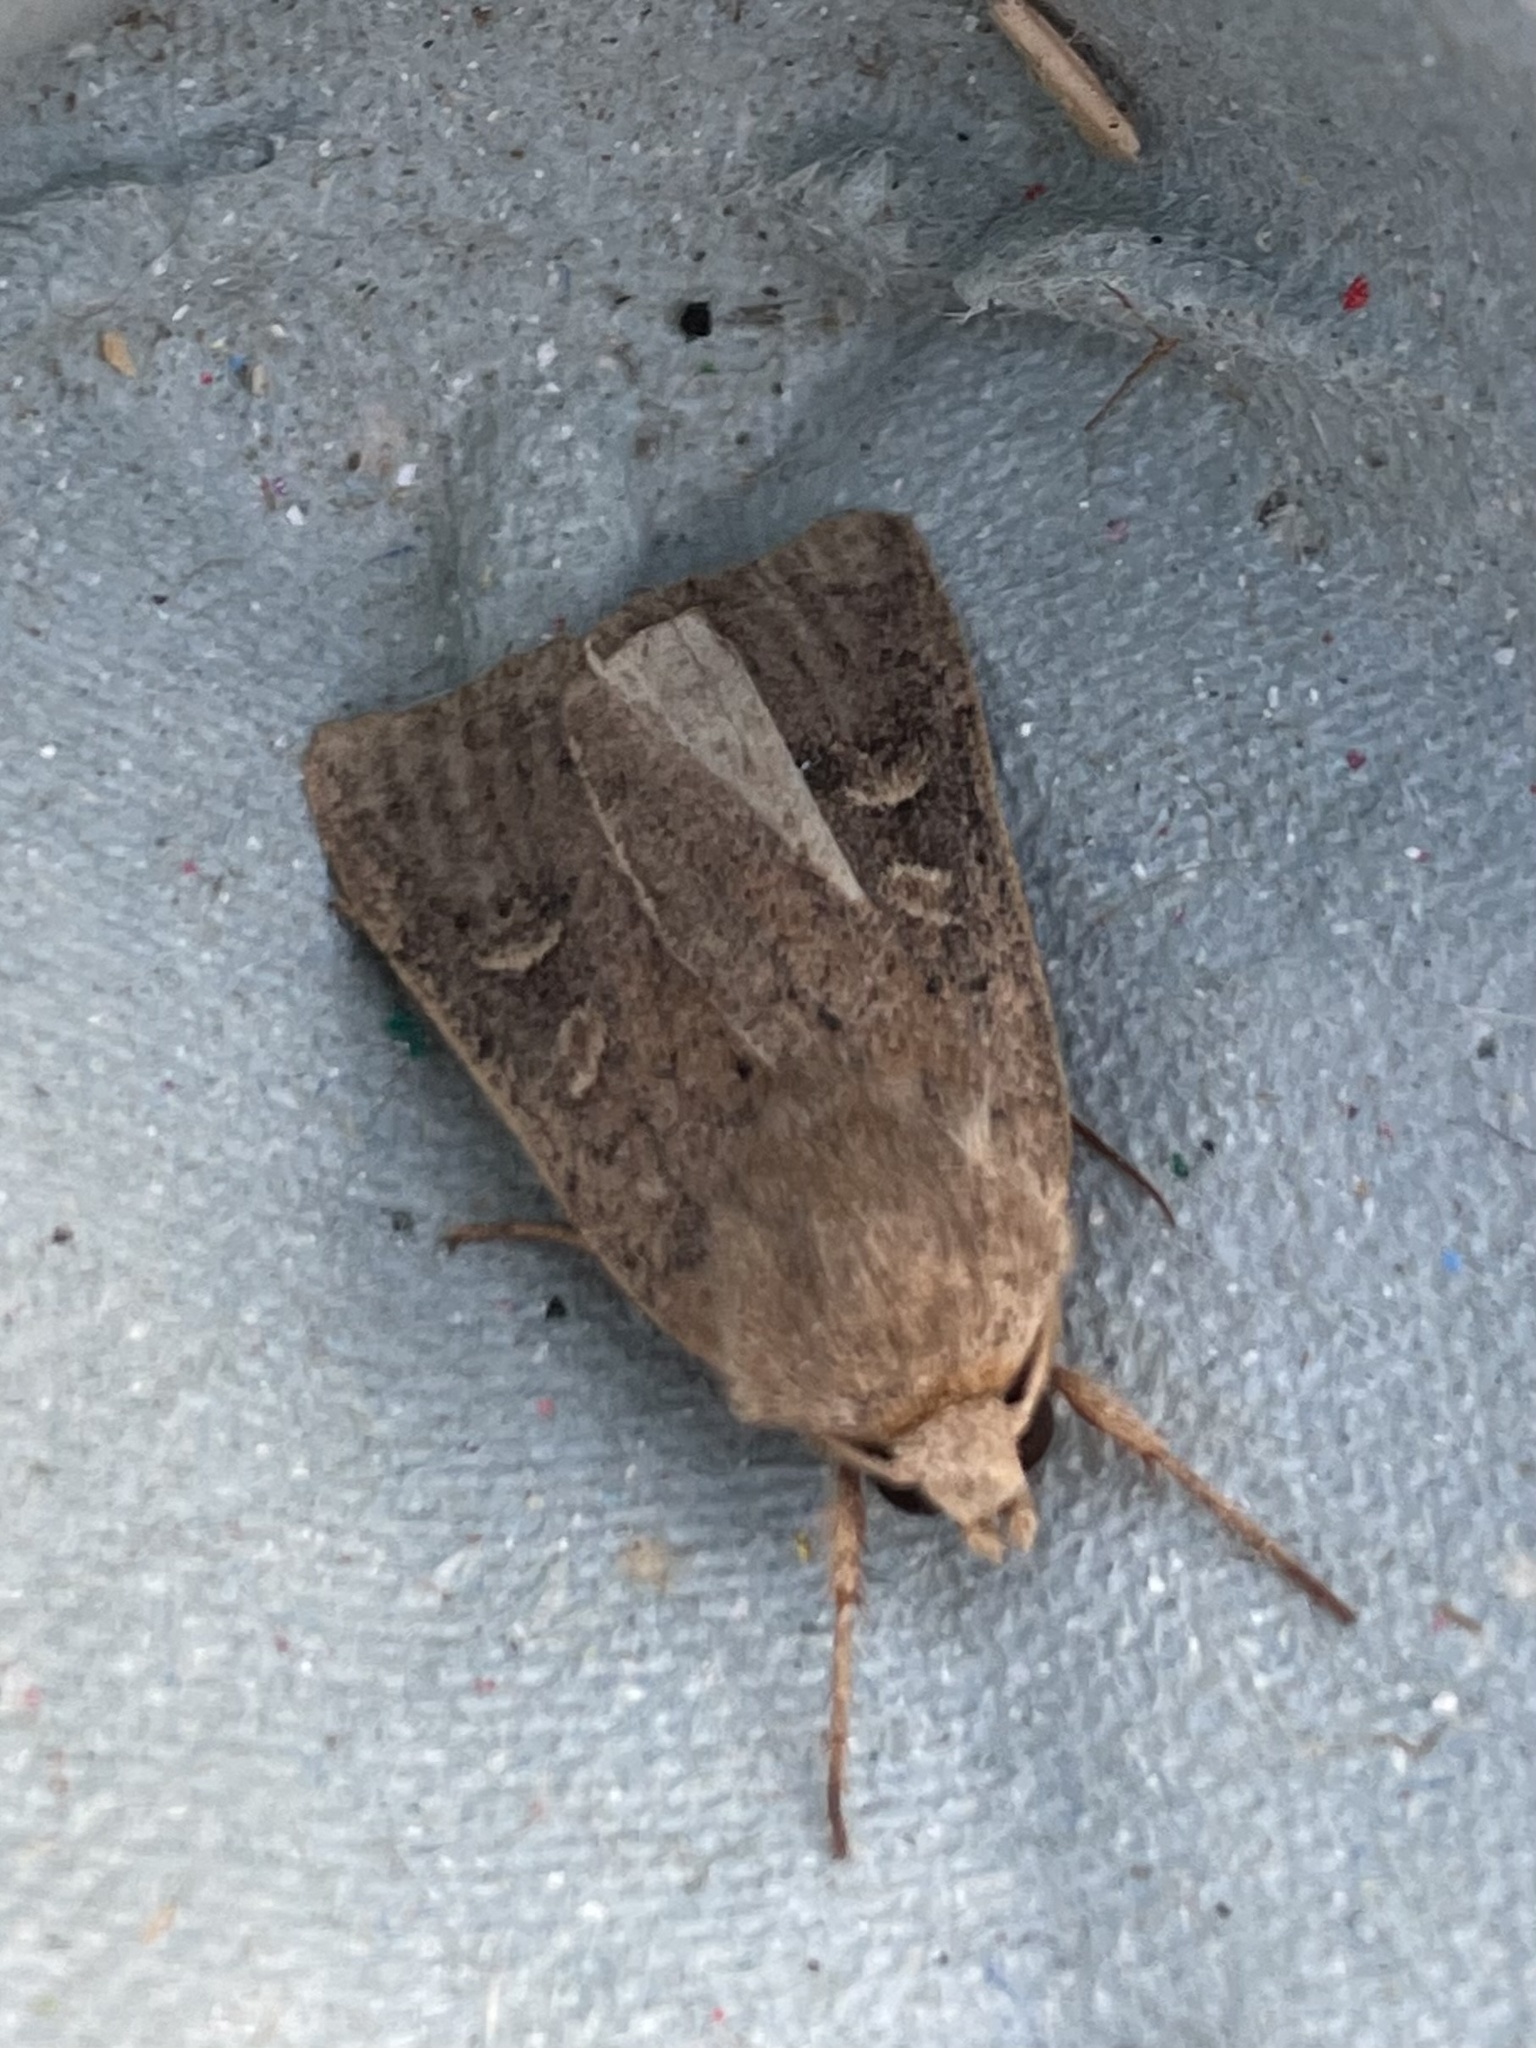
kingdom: Animalia
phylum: Arthropoda
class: Insecta
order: Lepidoptera
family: Noctuidae
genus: Xestia
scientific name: Xestia xanthographa
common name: Square-spot rustic
